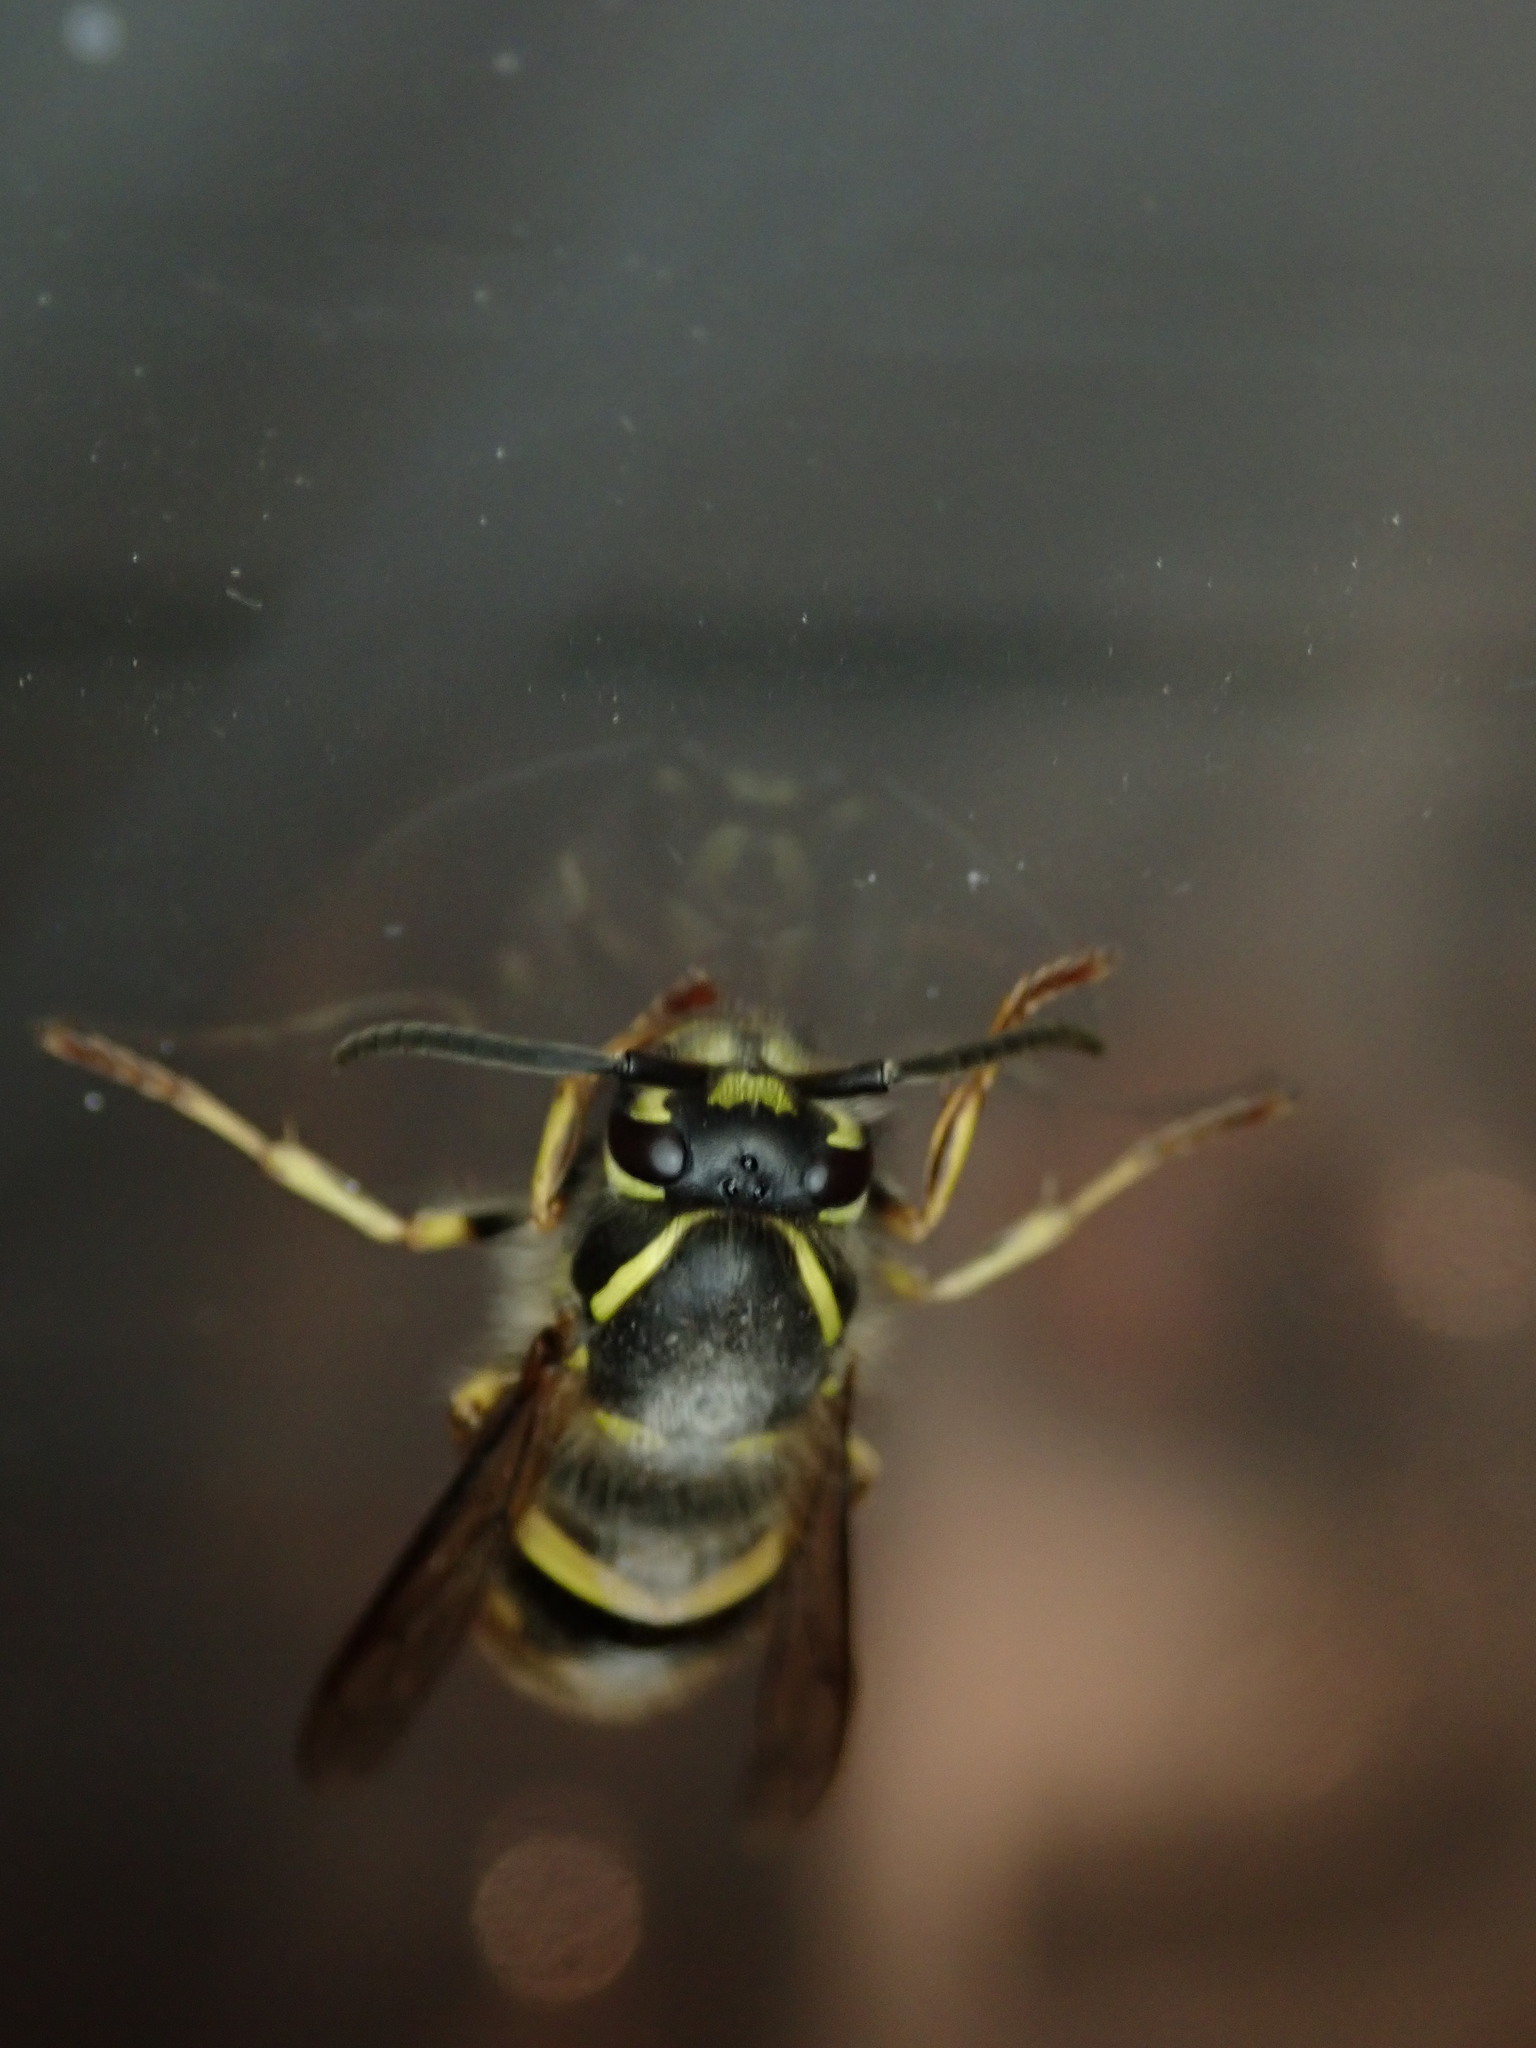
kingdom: Animalia
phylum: Arthropoda
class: Insecta
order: Hymenoptera
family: Vespidae
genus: Vespula
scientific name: Vespula vulgaris
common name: Common wasp
